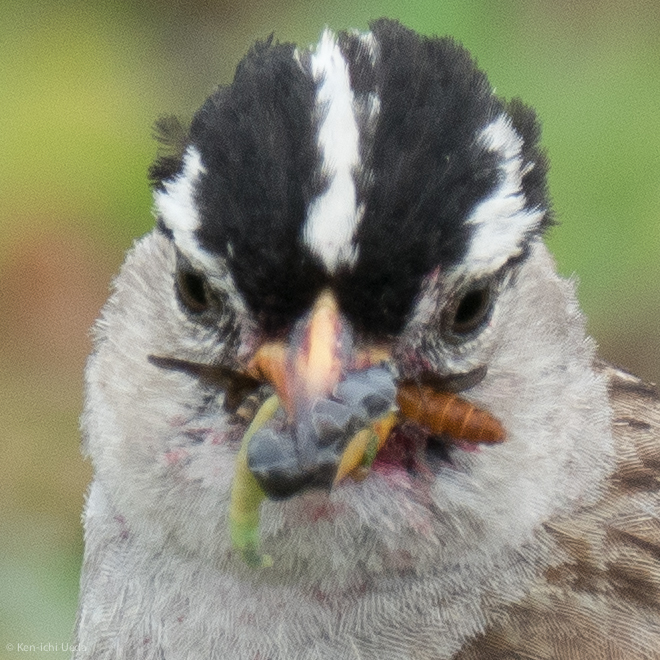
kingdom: Animalia
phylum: Chordata
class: Aves
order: Passeriformes
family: Passerellidae
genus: Zonotrichia
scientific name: Zonotrichia leucophrys
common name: White-crowned sparrow
